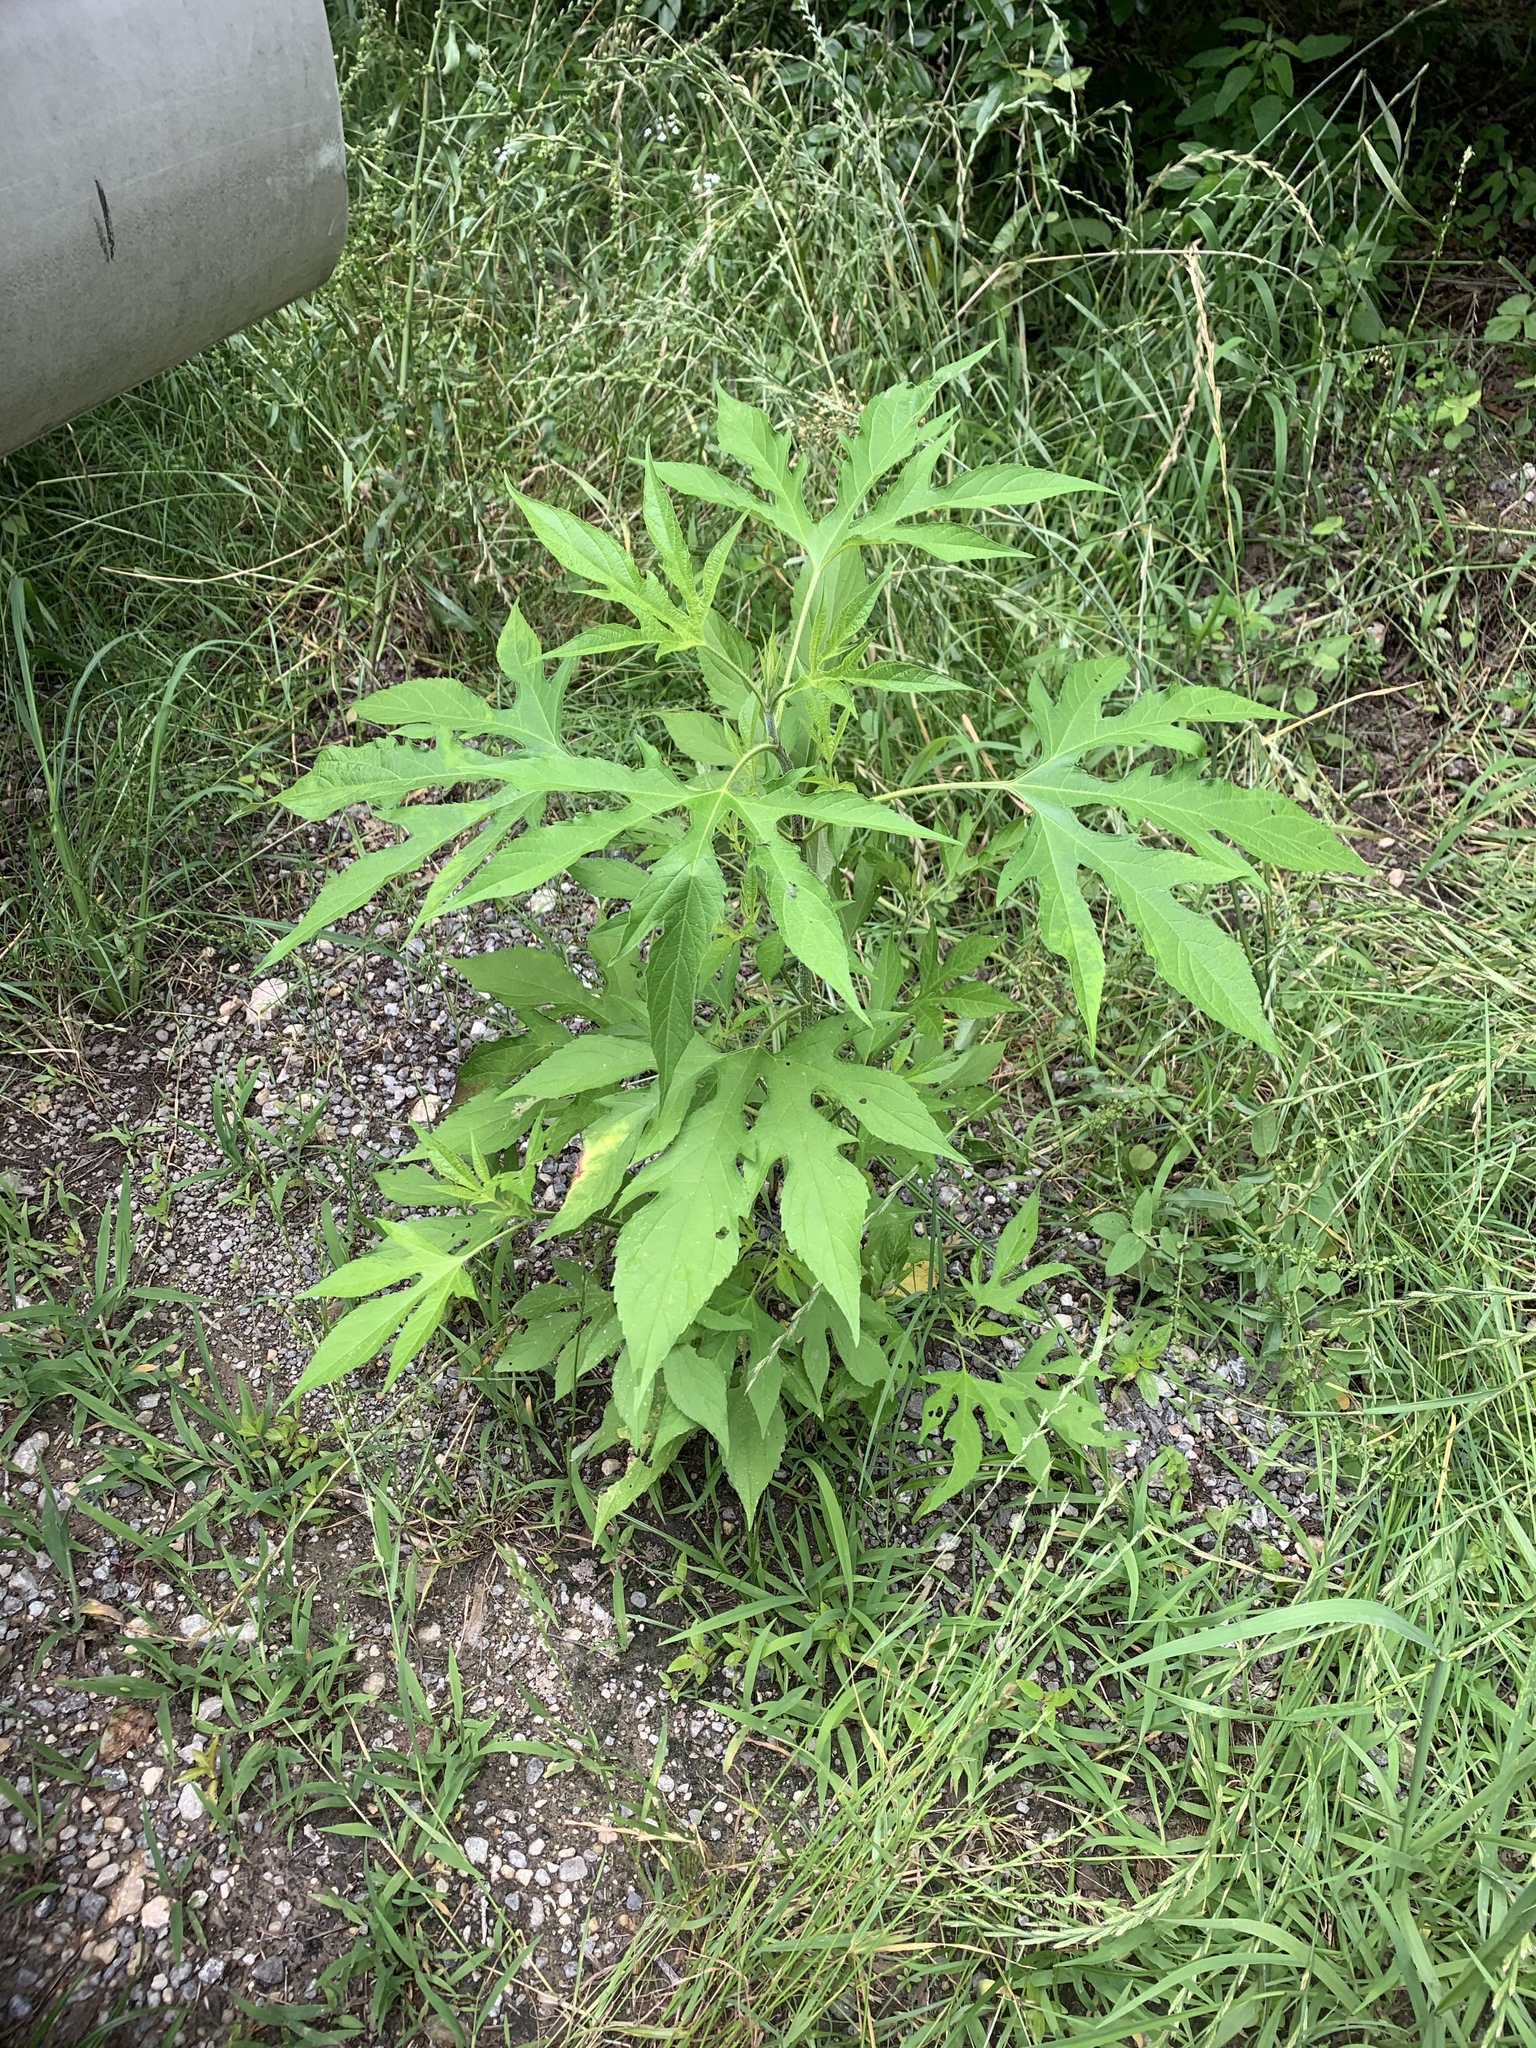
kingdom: Plantae
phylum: Tracheophyta
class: Magnoliopsida
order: Asterales
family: Asteraceae
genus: Ambrosia
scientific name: Ambrosia trifida
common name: Giant ragweed
